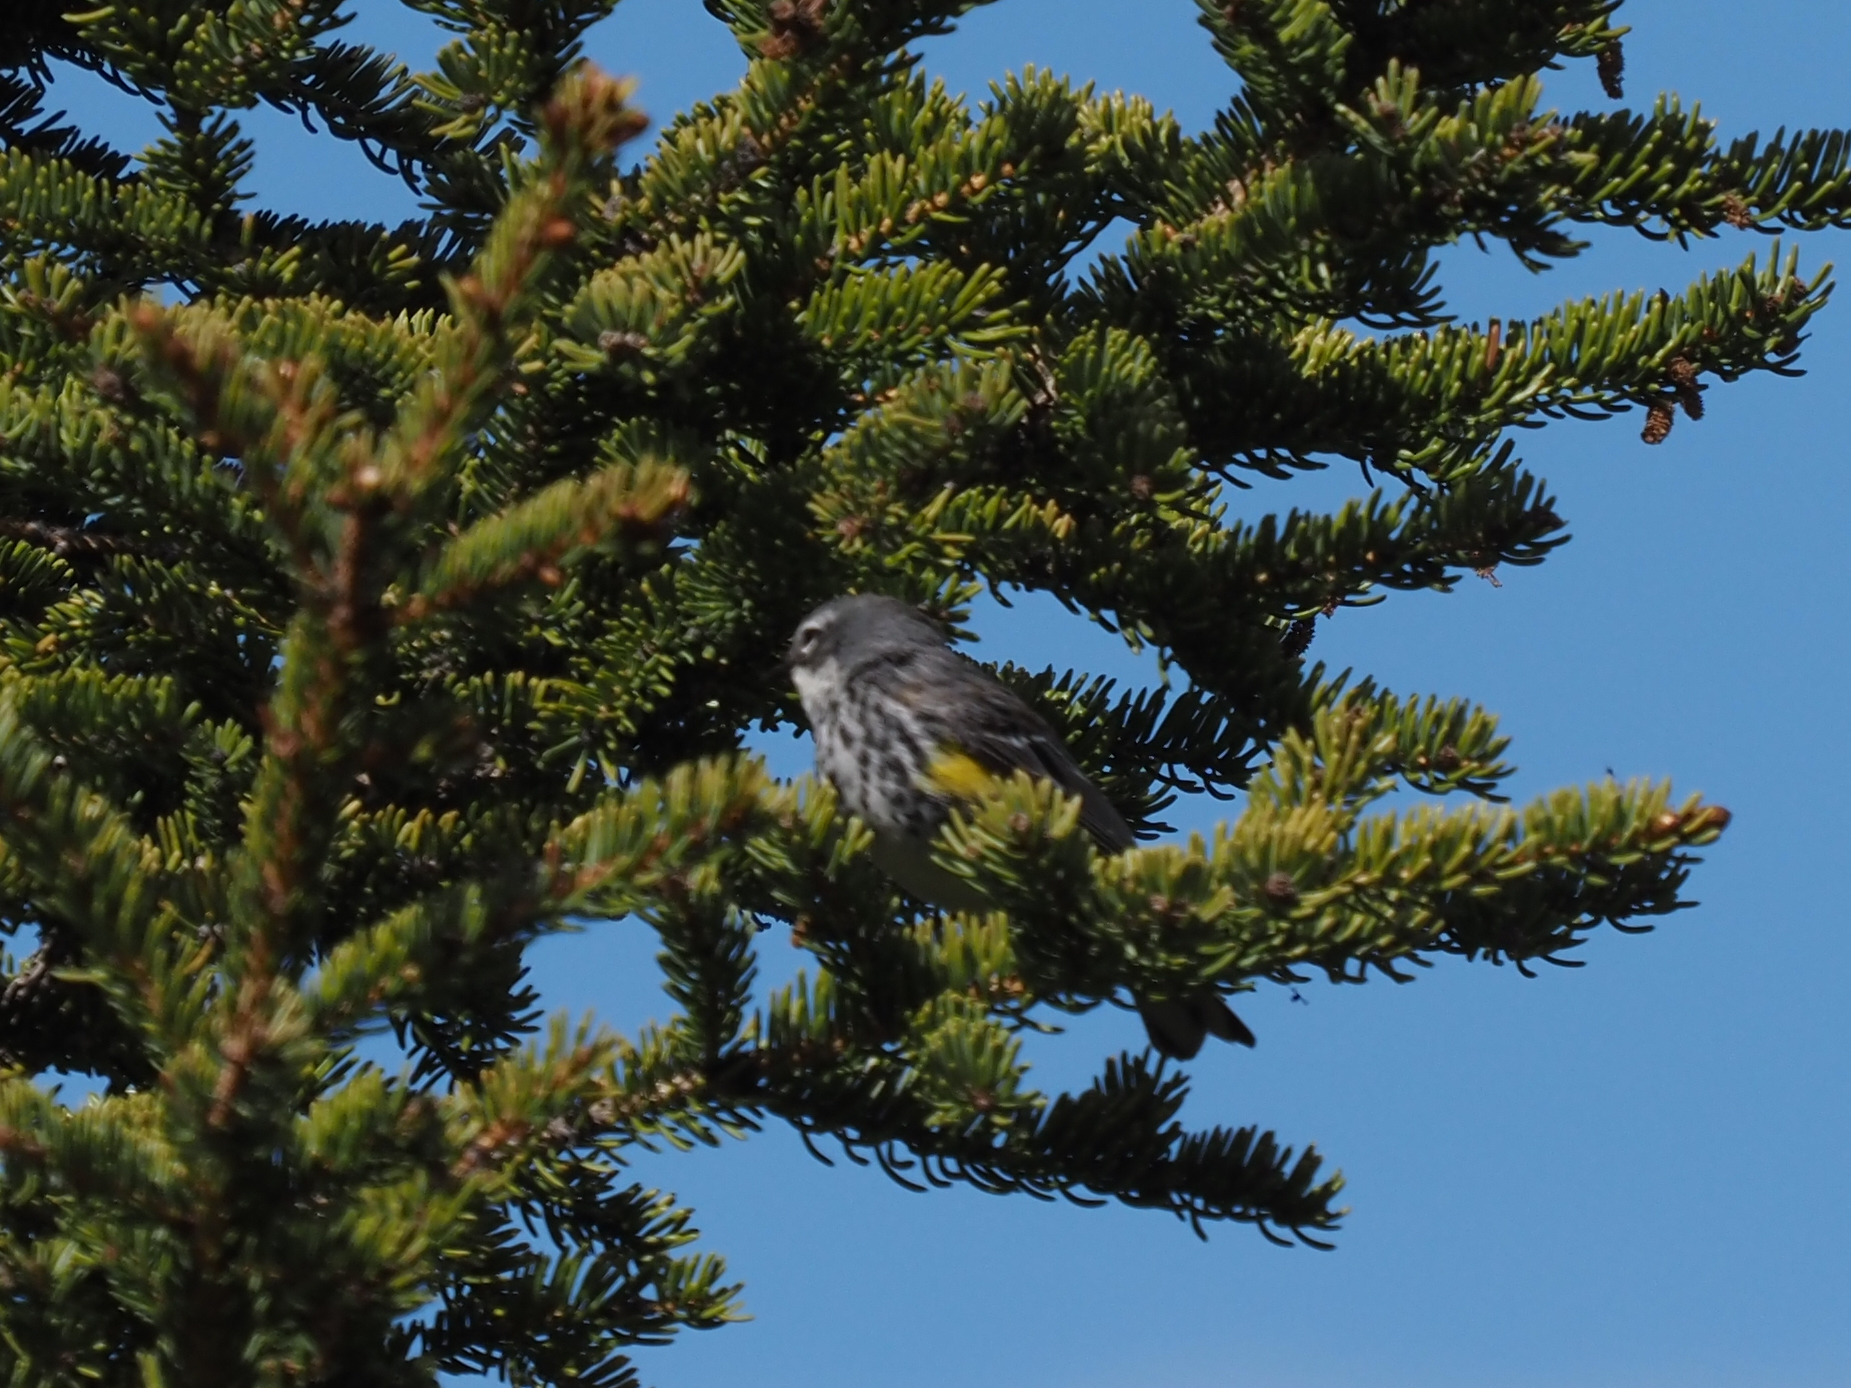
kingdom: Animalia
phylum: Chordata
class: Aves
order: Passeriformes
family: Parulidae
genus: Setophaga
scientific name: Setophaga coronata
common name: Myrtle warbler
